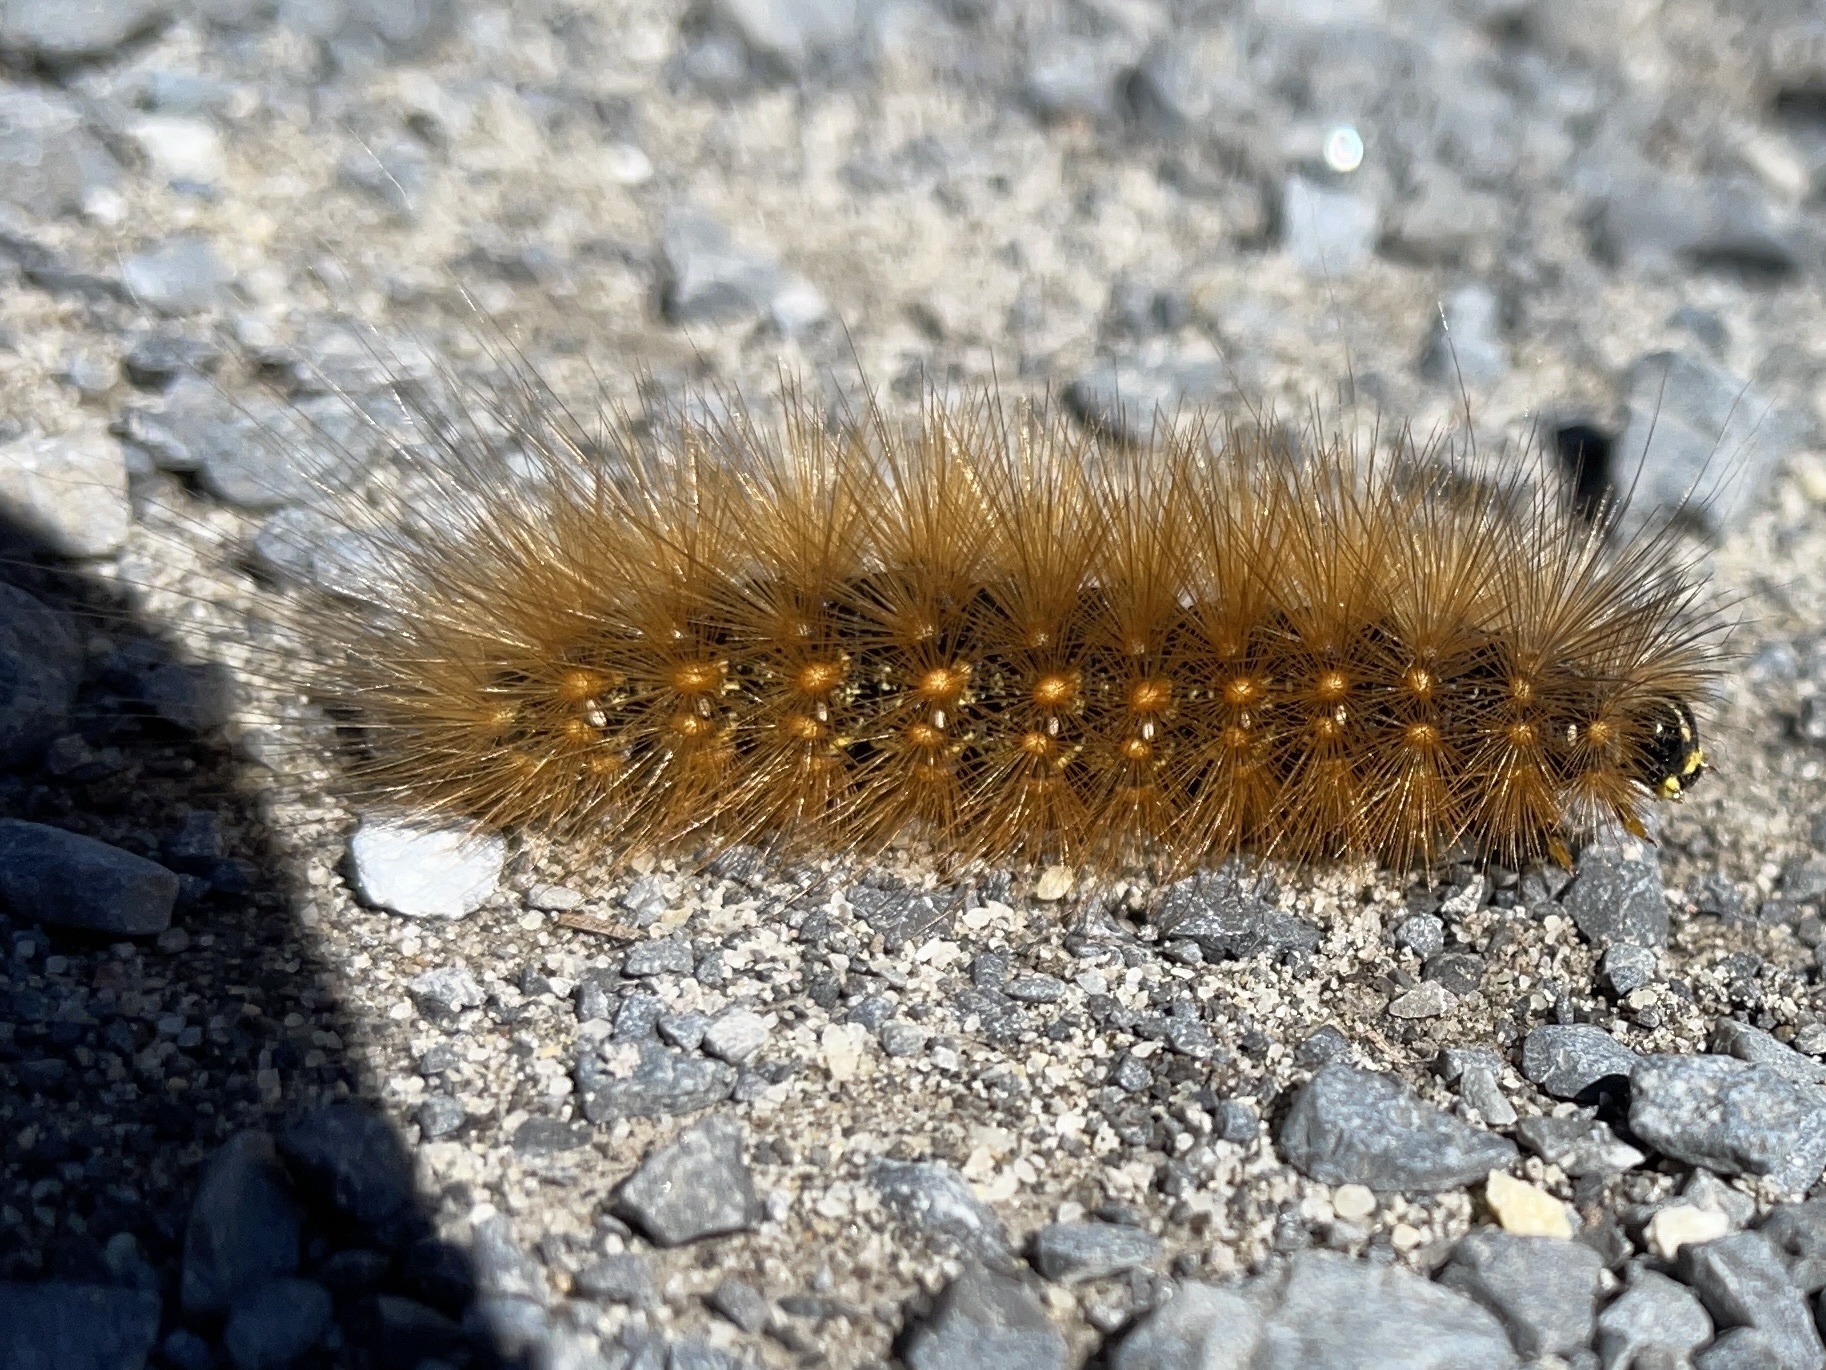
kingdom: Animalia
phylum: Arthropoda
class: Insecta
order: Lepidoptera
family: Erebidae
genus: Estigmene
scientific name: Estigmene acrea
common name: Salt marsh moth
